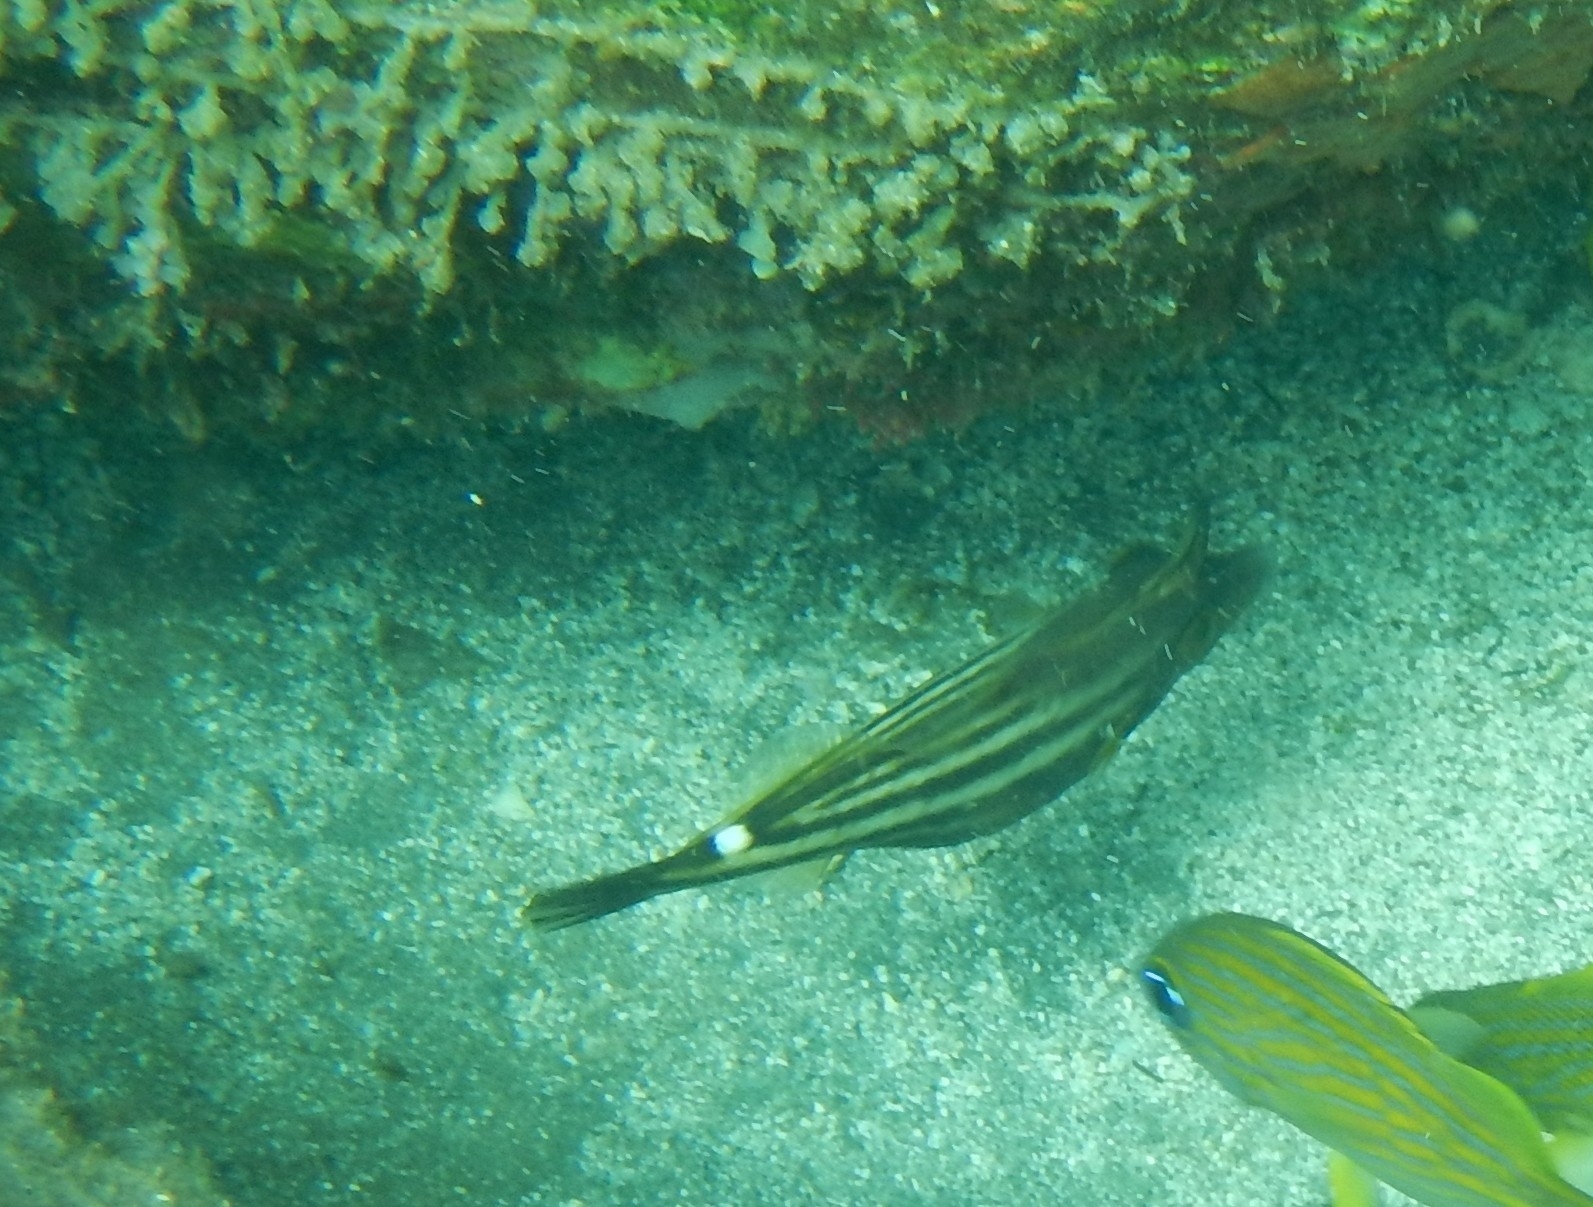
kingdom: Animalia
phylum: Chordata
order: Tetraodontiformes
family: Monacanthidae
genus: Cantherhines
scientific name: Cantherhines pullus
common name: Orangespotted filefish
